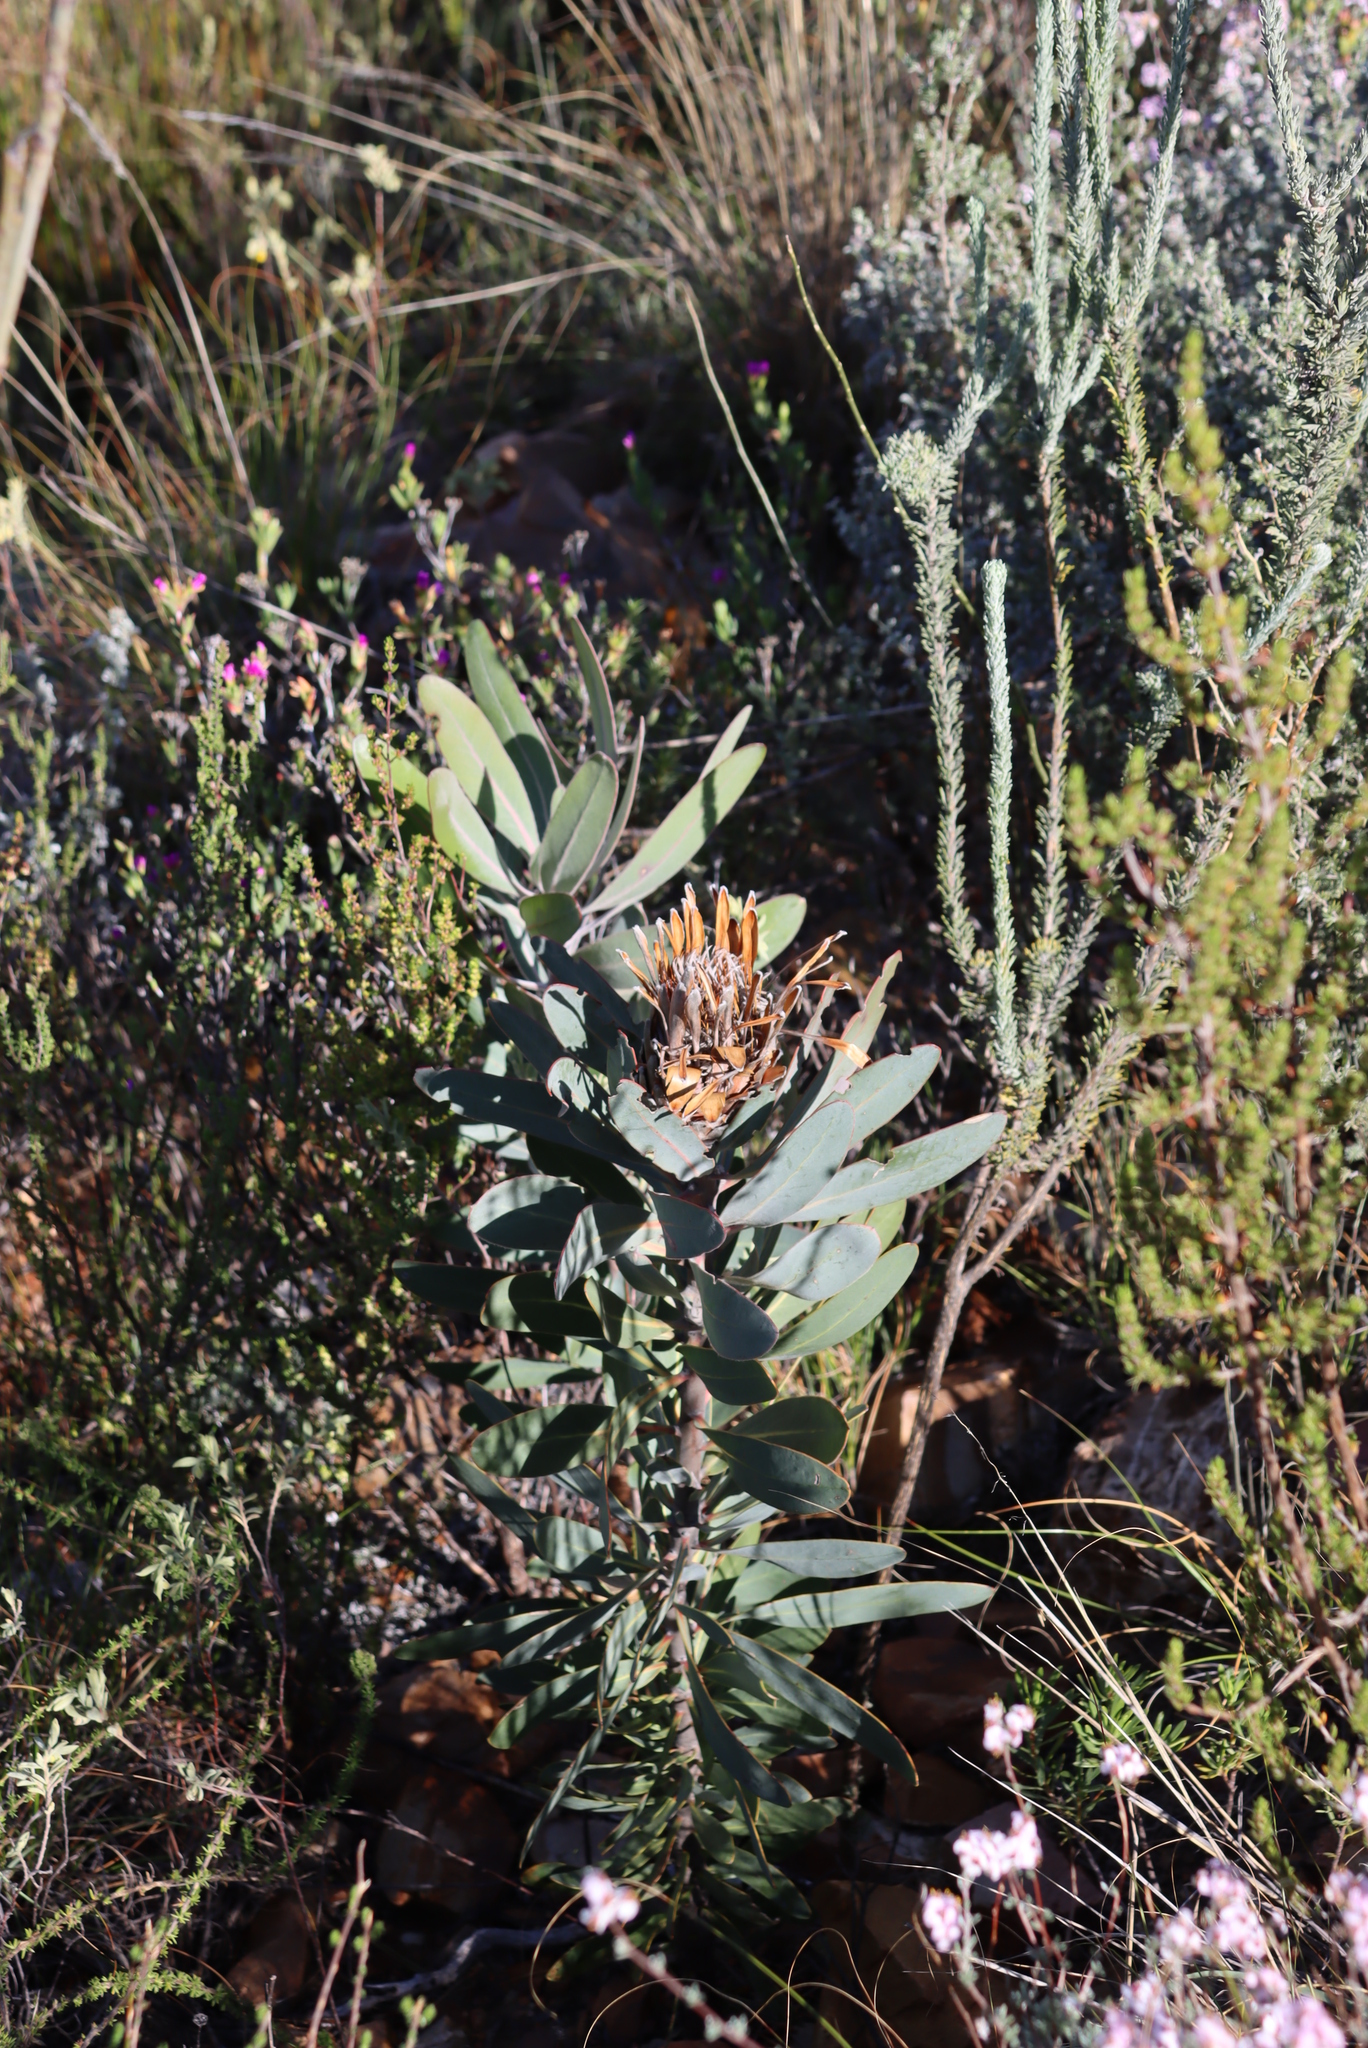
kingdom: Plantae
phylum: Tracheophyta
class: Magnoliopsida
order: Proteales
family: Proteaceae
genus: Protea
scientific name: Protea lorifolia
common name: Strap-leaved protea
